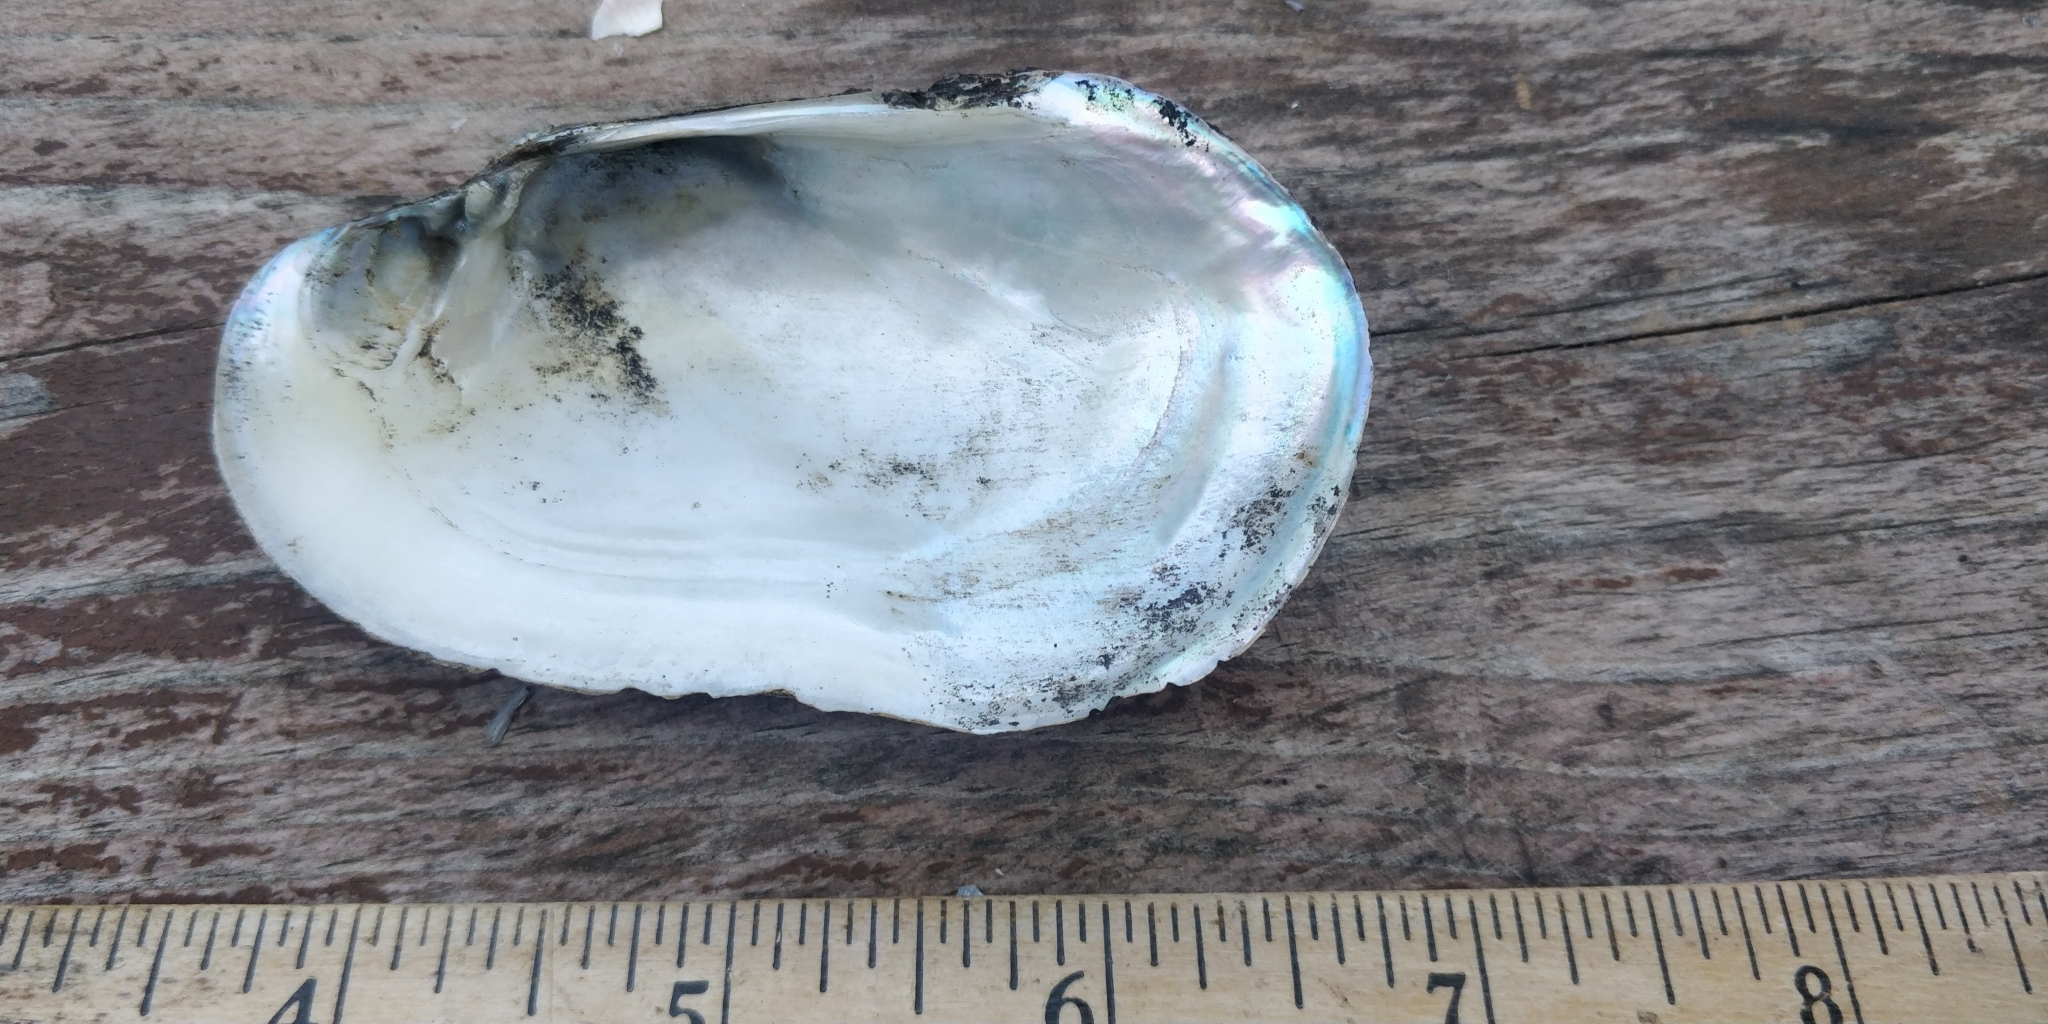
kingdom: Animalia
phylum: Mollusca
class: Bivalvia
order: Unionida
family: Unionidae
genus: Lampsilis
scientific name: Lampsilis siliquoidea
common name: Fatmucket
